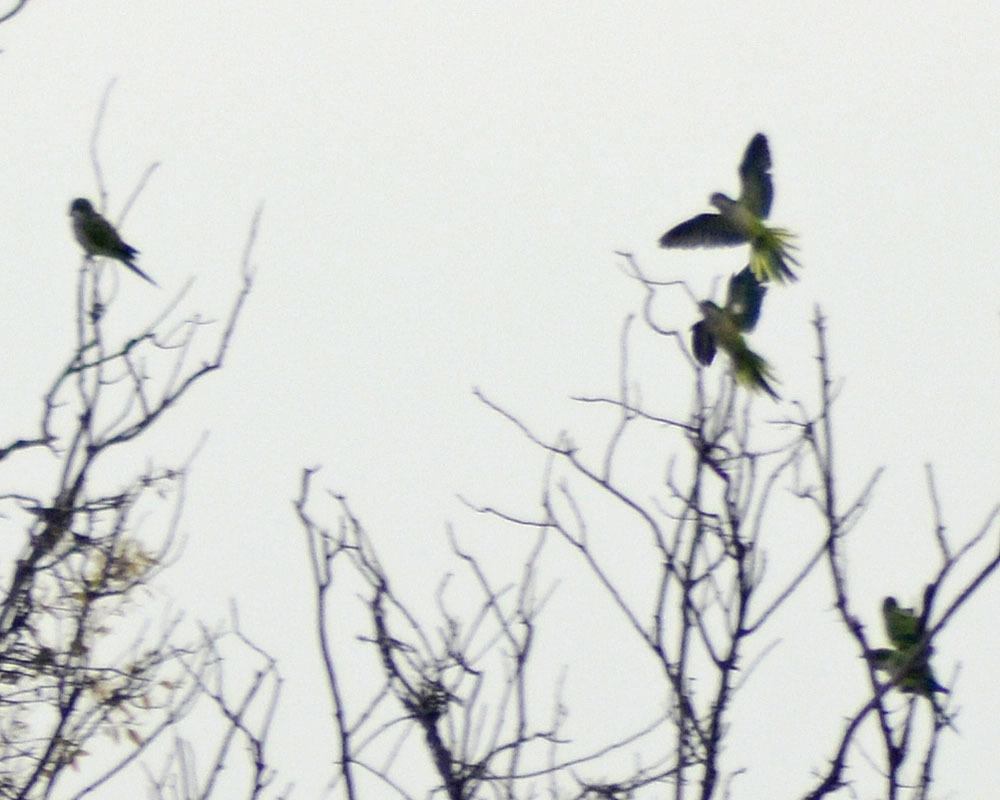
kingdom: Animalia
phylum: Chordata
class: Aves
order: Psittaciformes
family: Psittacidae
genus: Myiopsitta
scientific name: Myiopsitta monachus
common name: Monk parakeet
